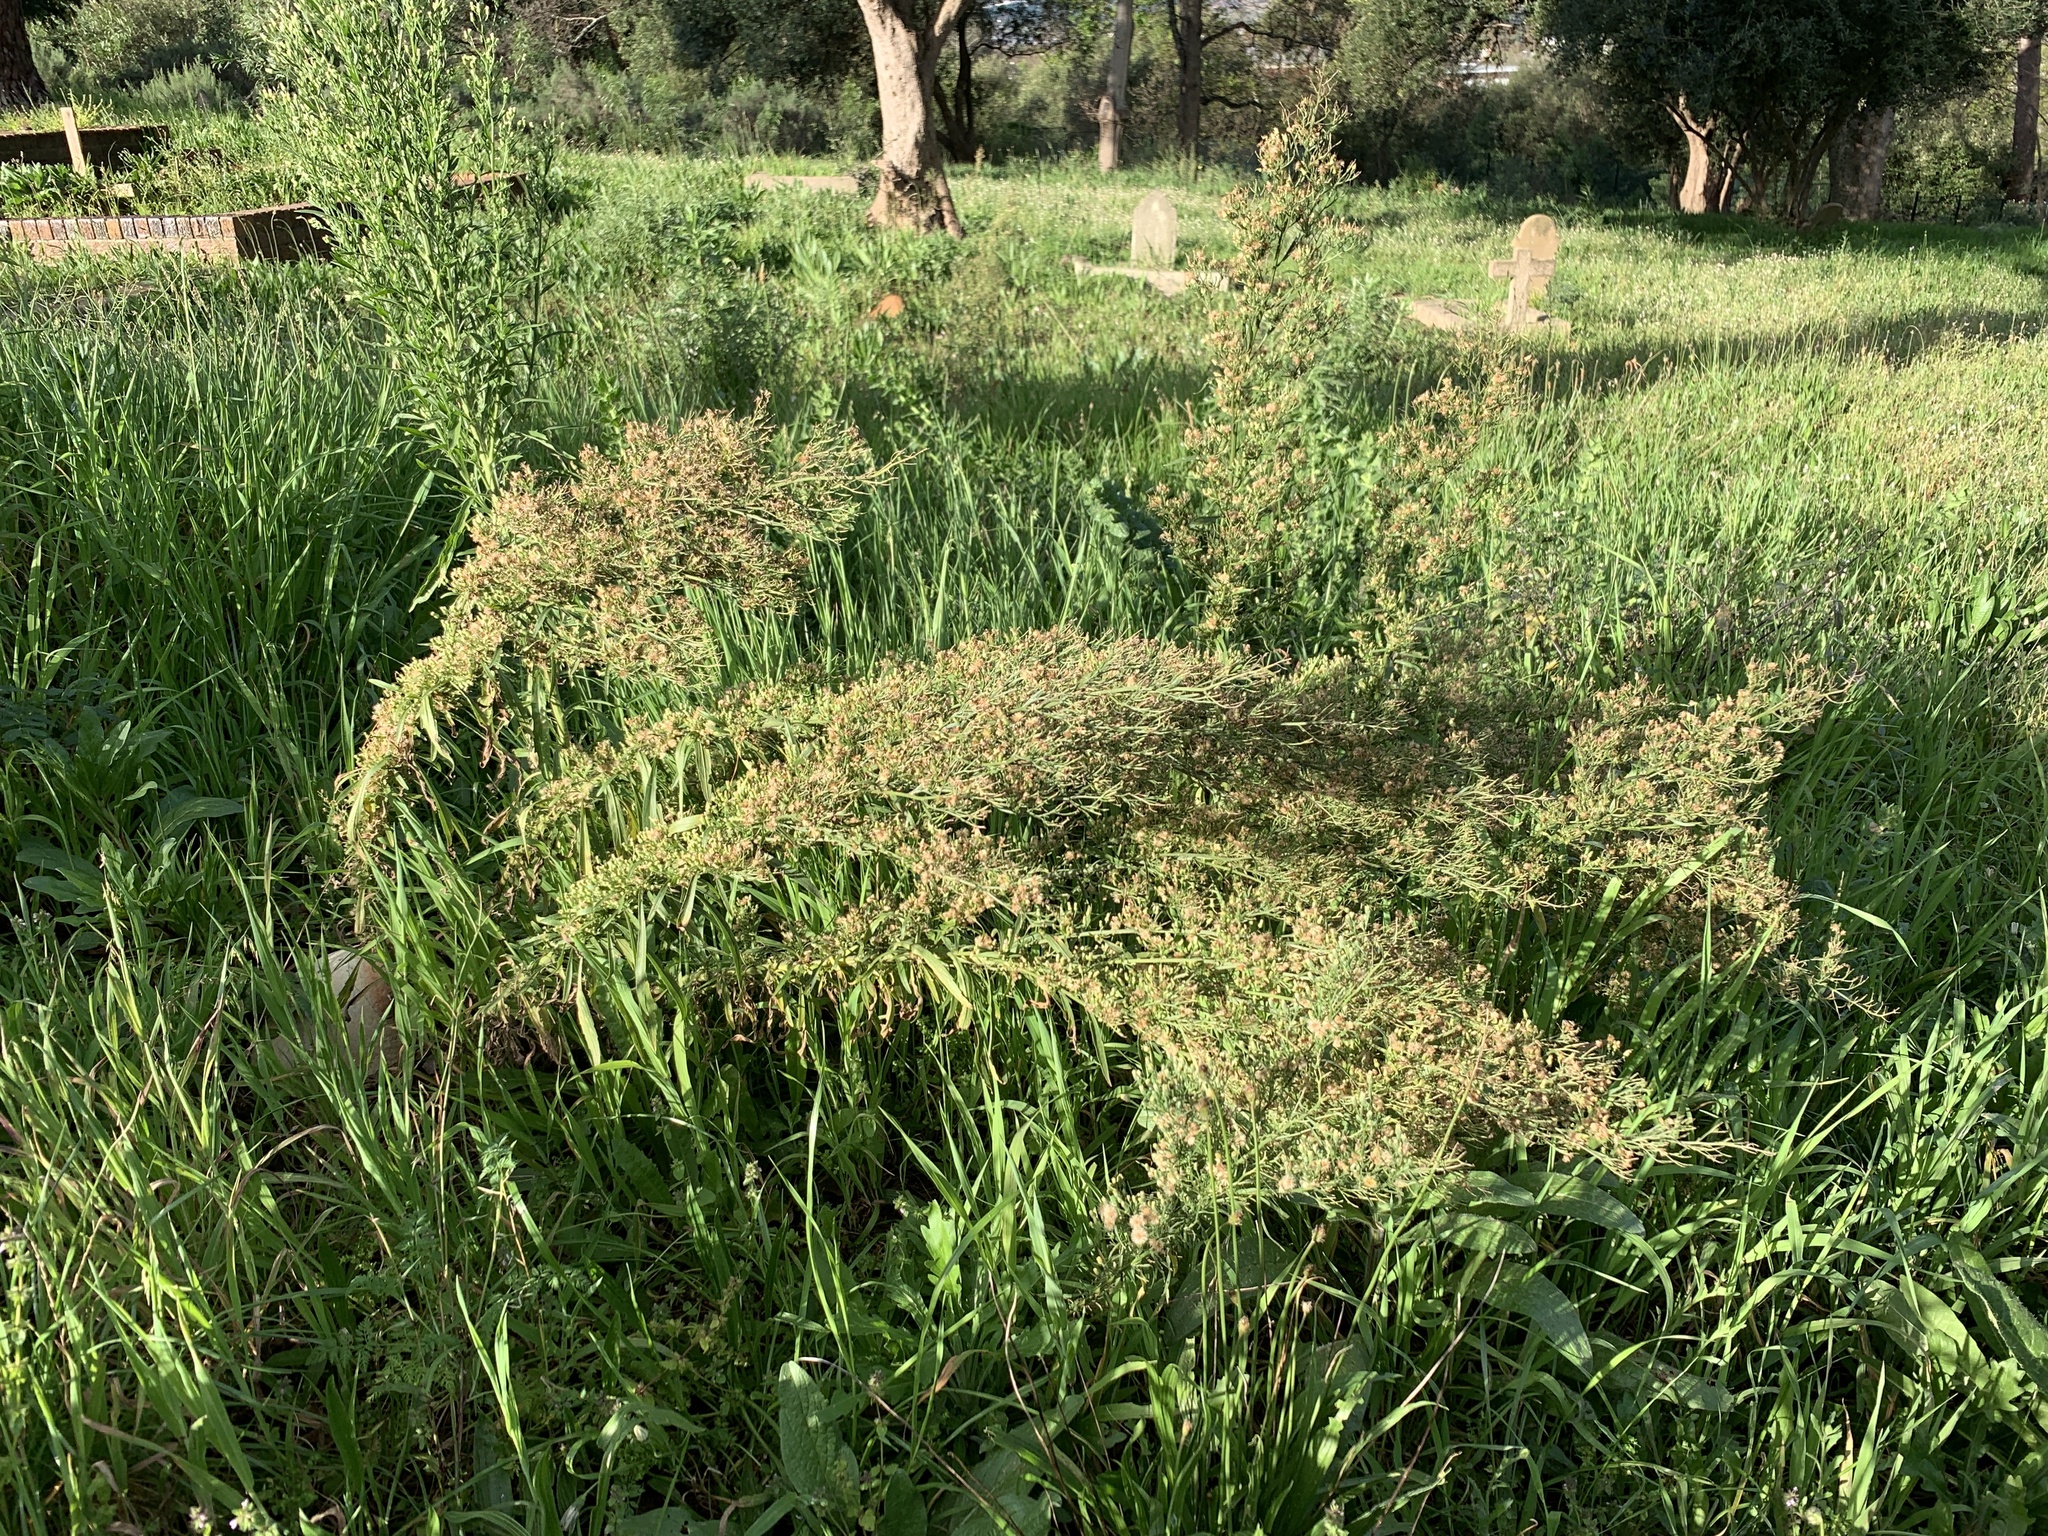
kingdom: Plantae
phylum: Tracheophyta
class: Magnoliopsida
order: Asterales
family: Asteraceae
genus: Erigeron
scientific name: Erigeron sumatrensis
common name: Daisy
